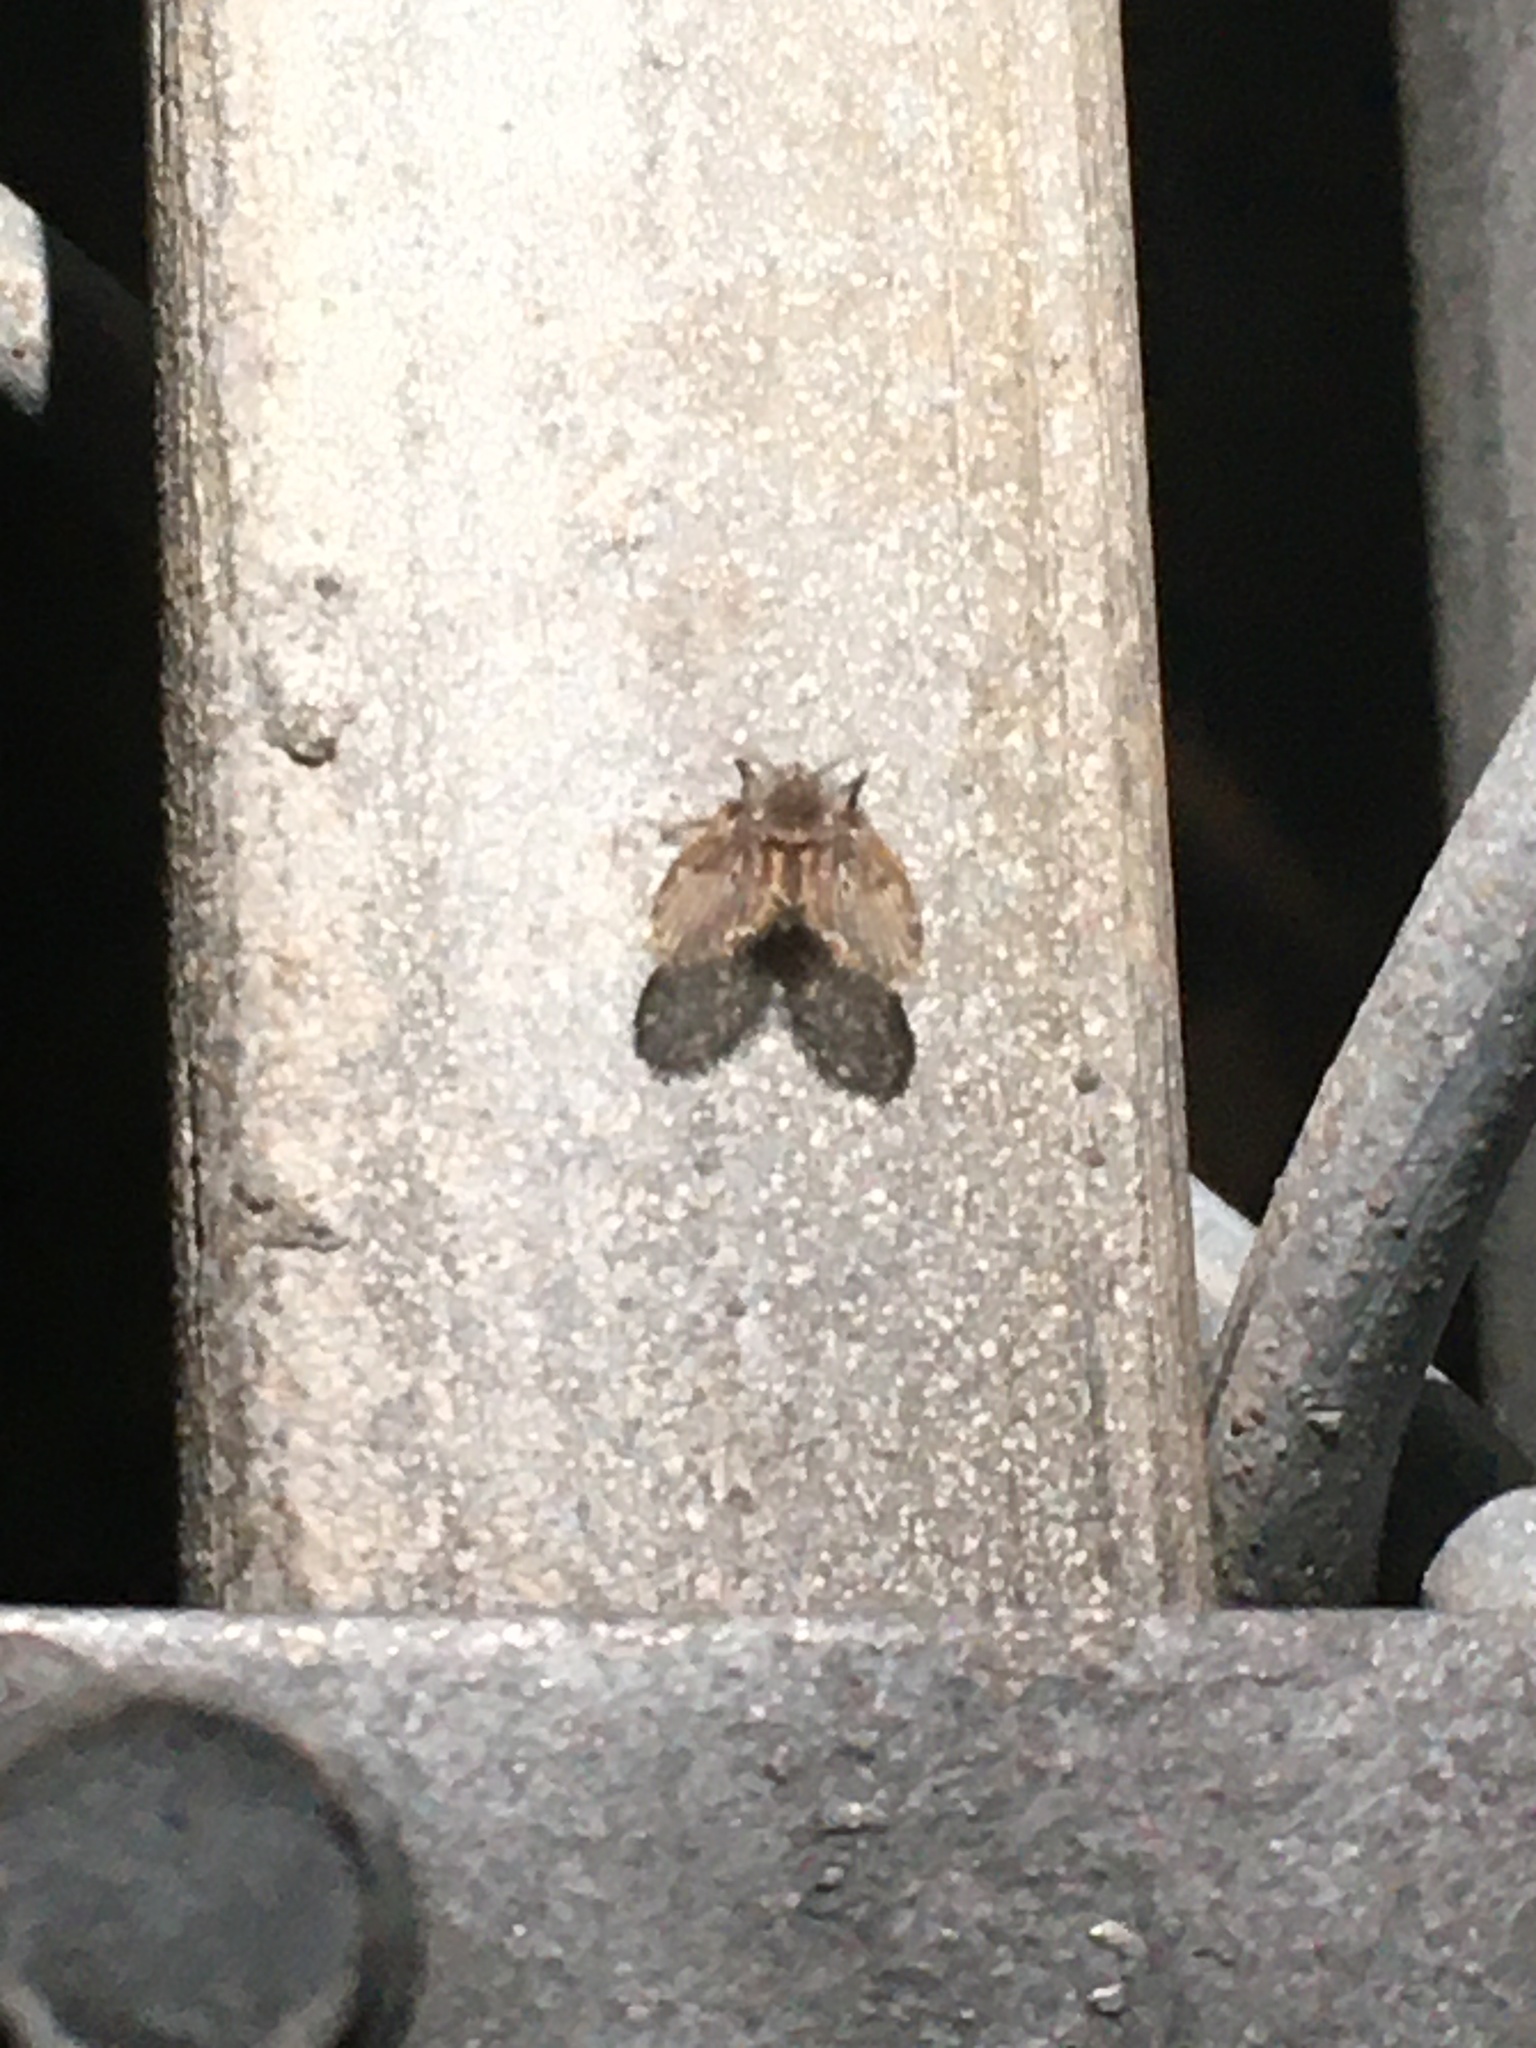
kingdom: Animalia
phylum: Arthropoda
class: Insecta
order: Diptera
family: Psychodidae
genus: Clogmia
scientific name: Clogmia albipunctatus
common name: White-spotted moth fly
